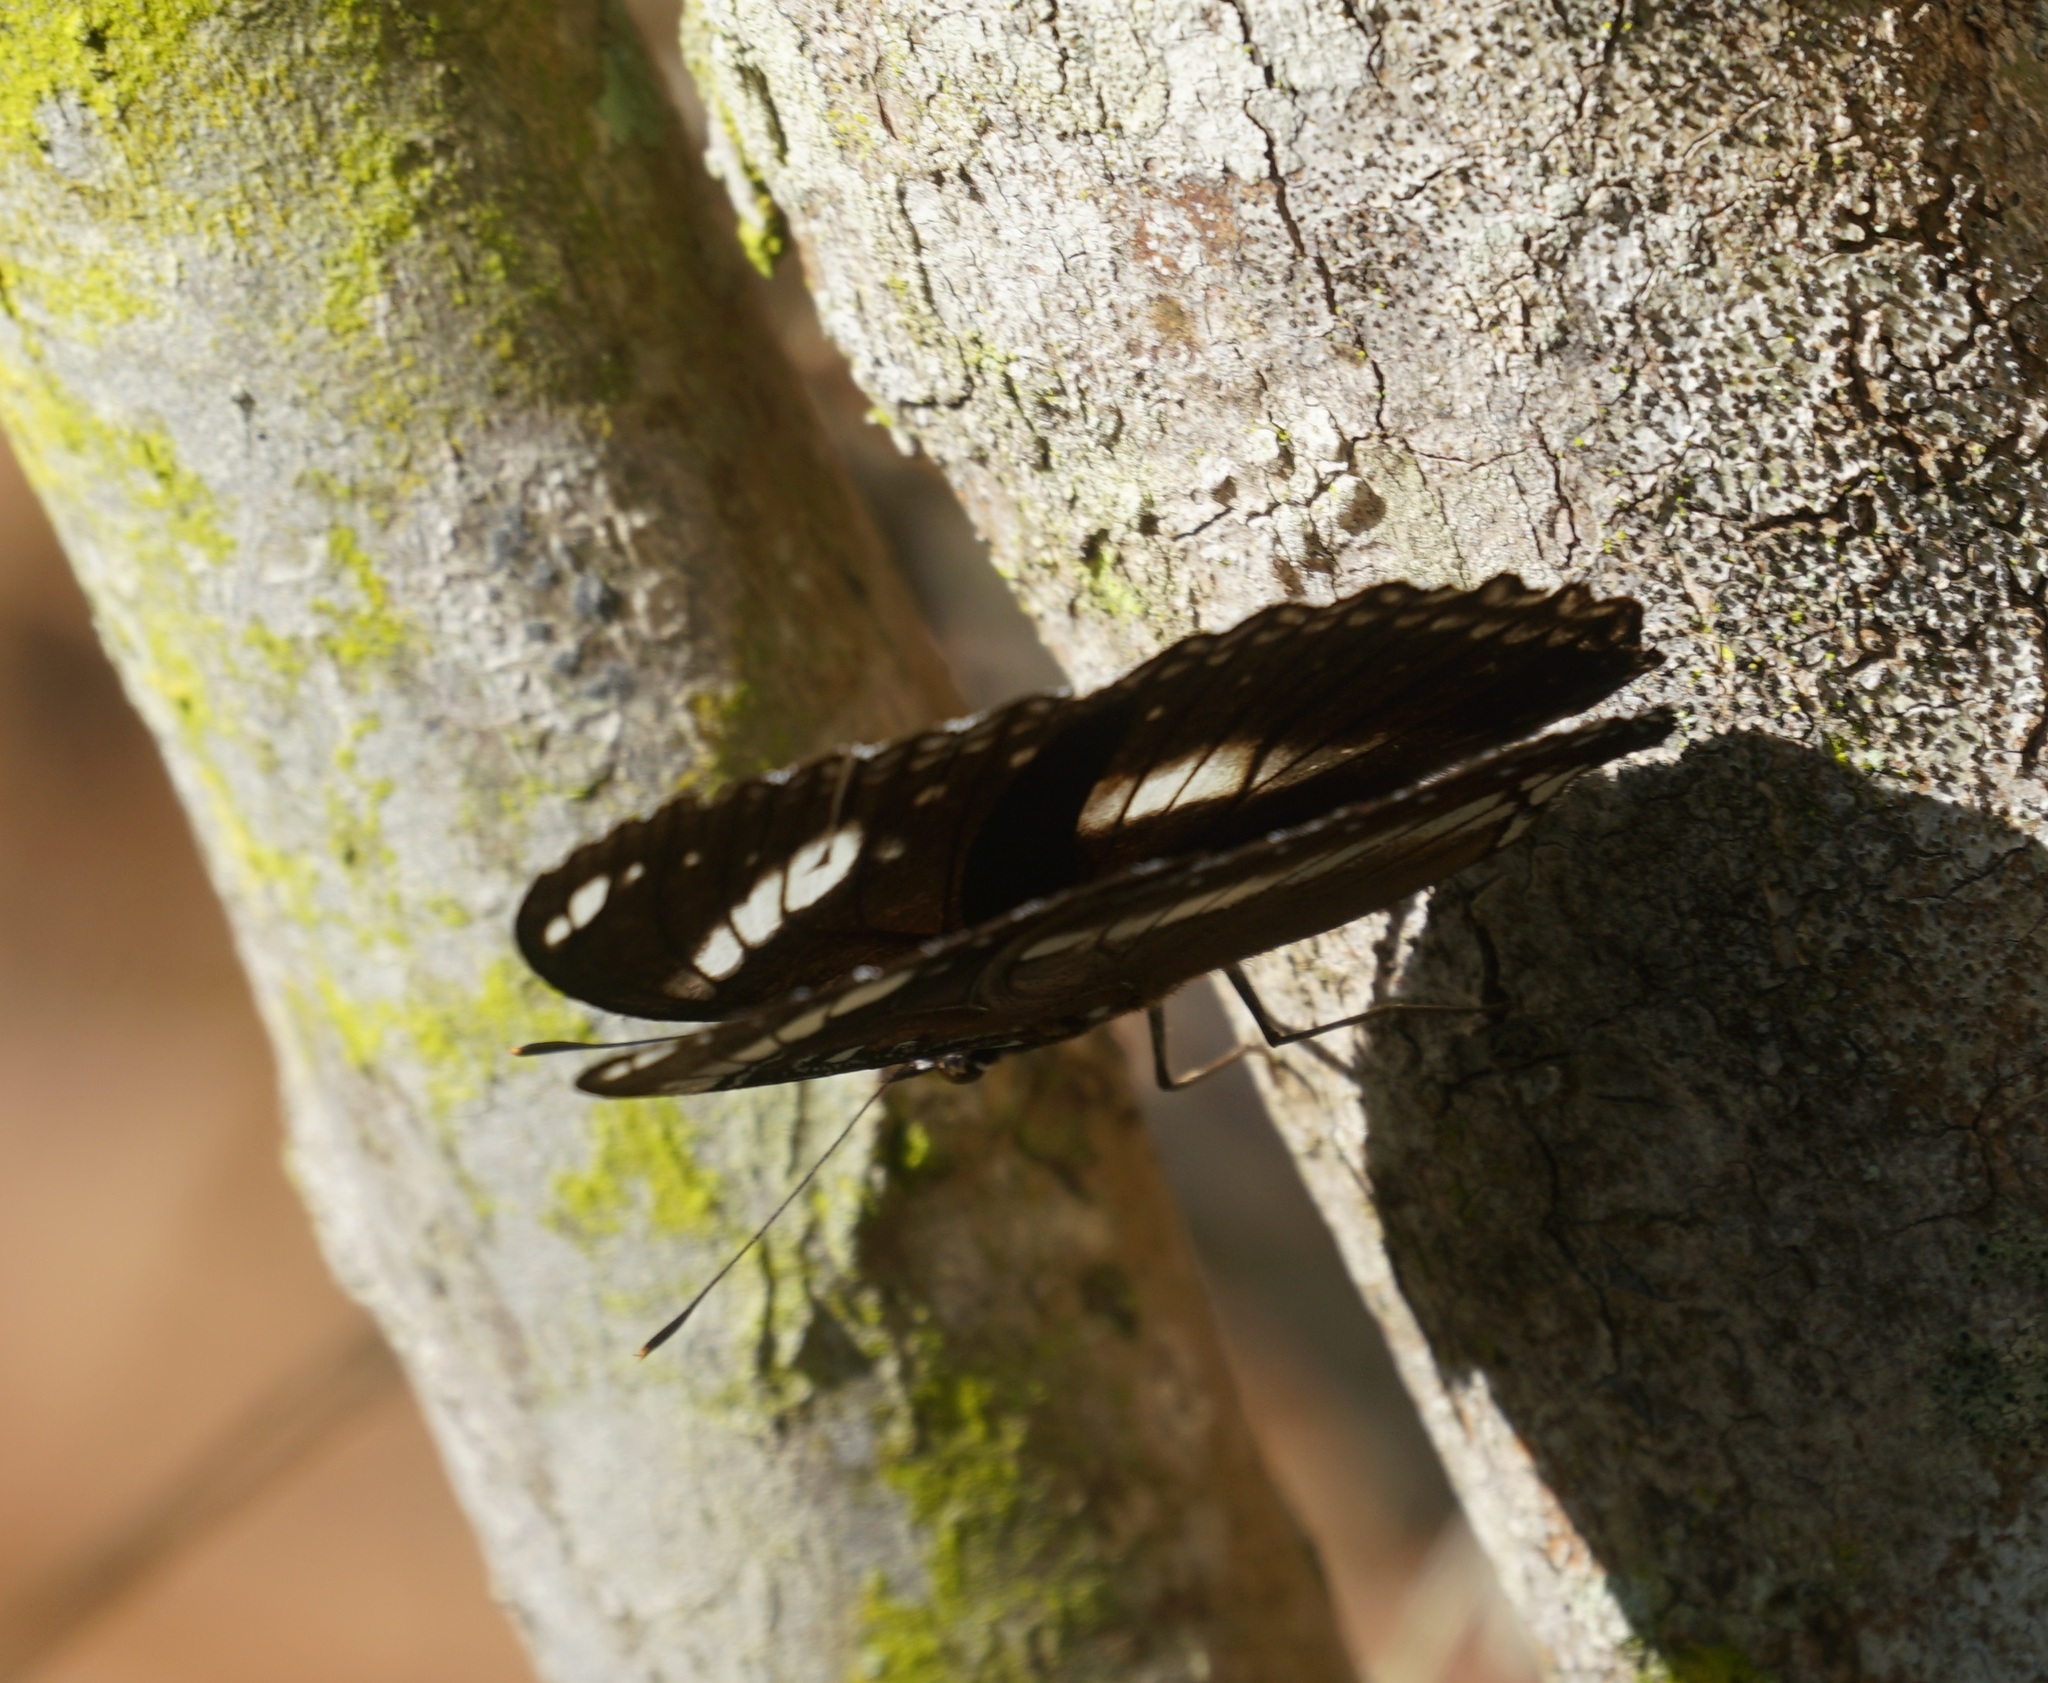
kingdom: Animalia
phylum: Arthropoda
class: Insecta
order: Lepidoptera
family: Nymphalidae
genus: Hypolimnas
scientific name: Hypolimnas bolina
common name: Great eggfly
